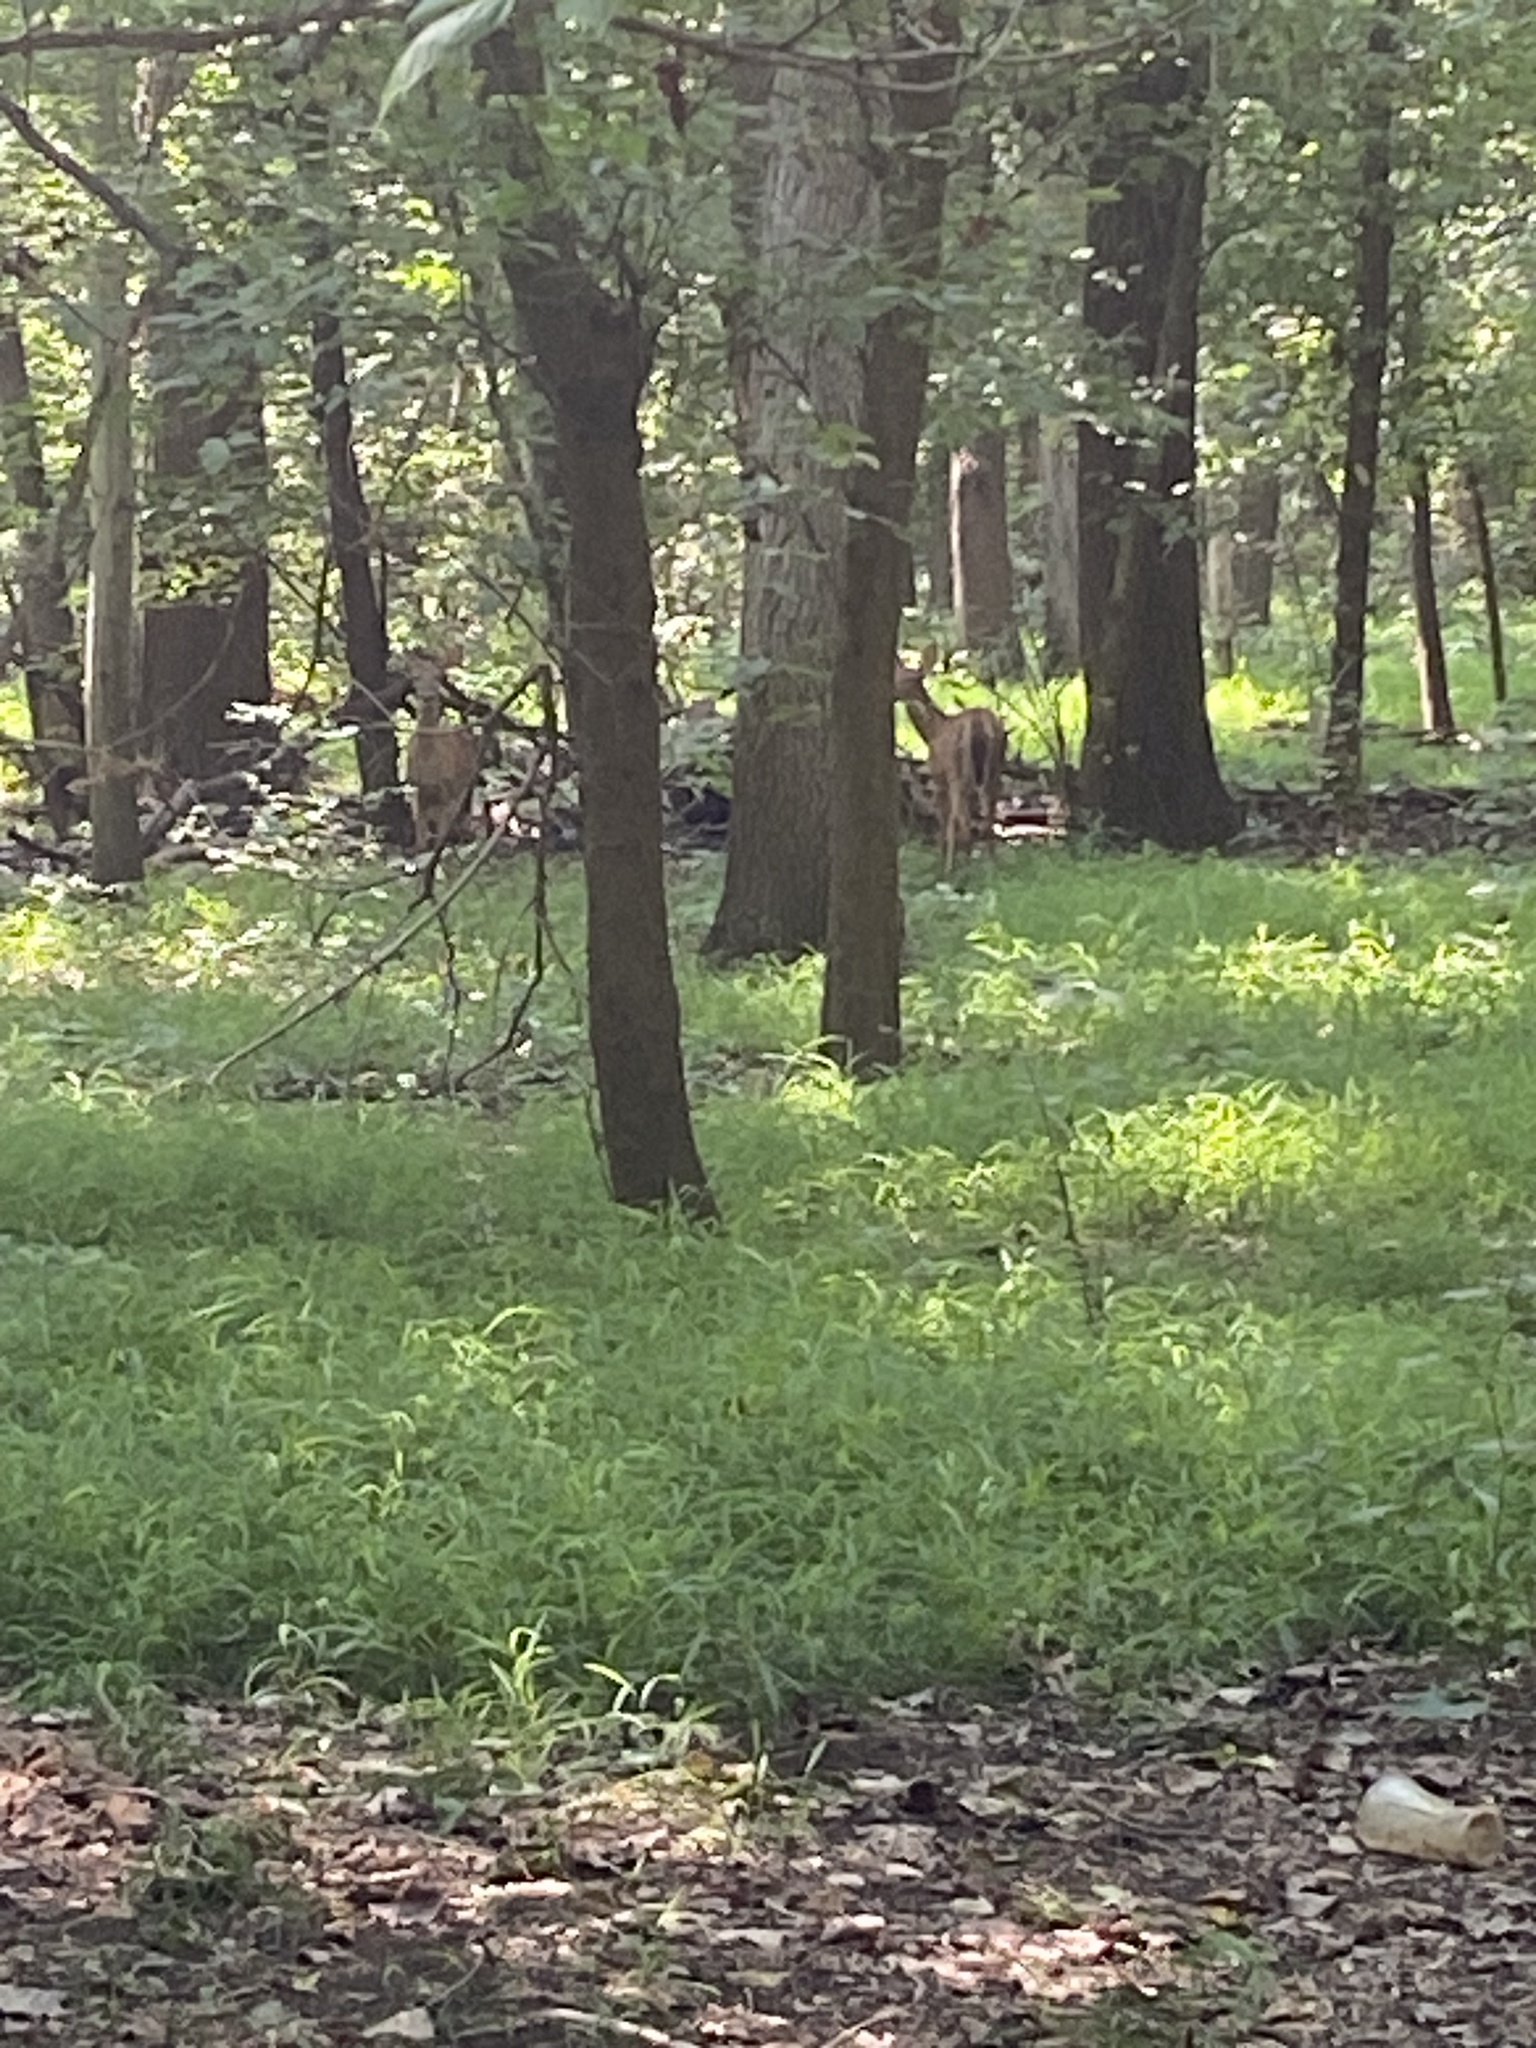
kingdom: Animalia
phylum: Chordata
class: Mammalia
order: Artiodactyla
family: Cervidae
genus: Odocoileus
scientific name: Odocoileus virginianus
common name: White-tailed deer
